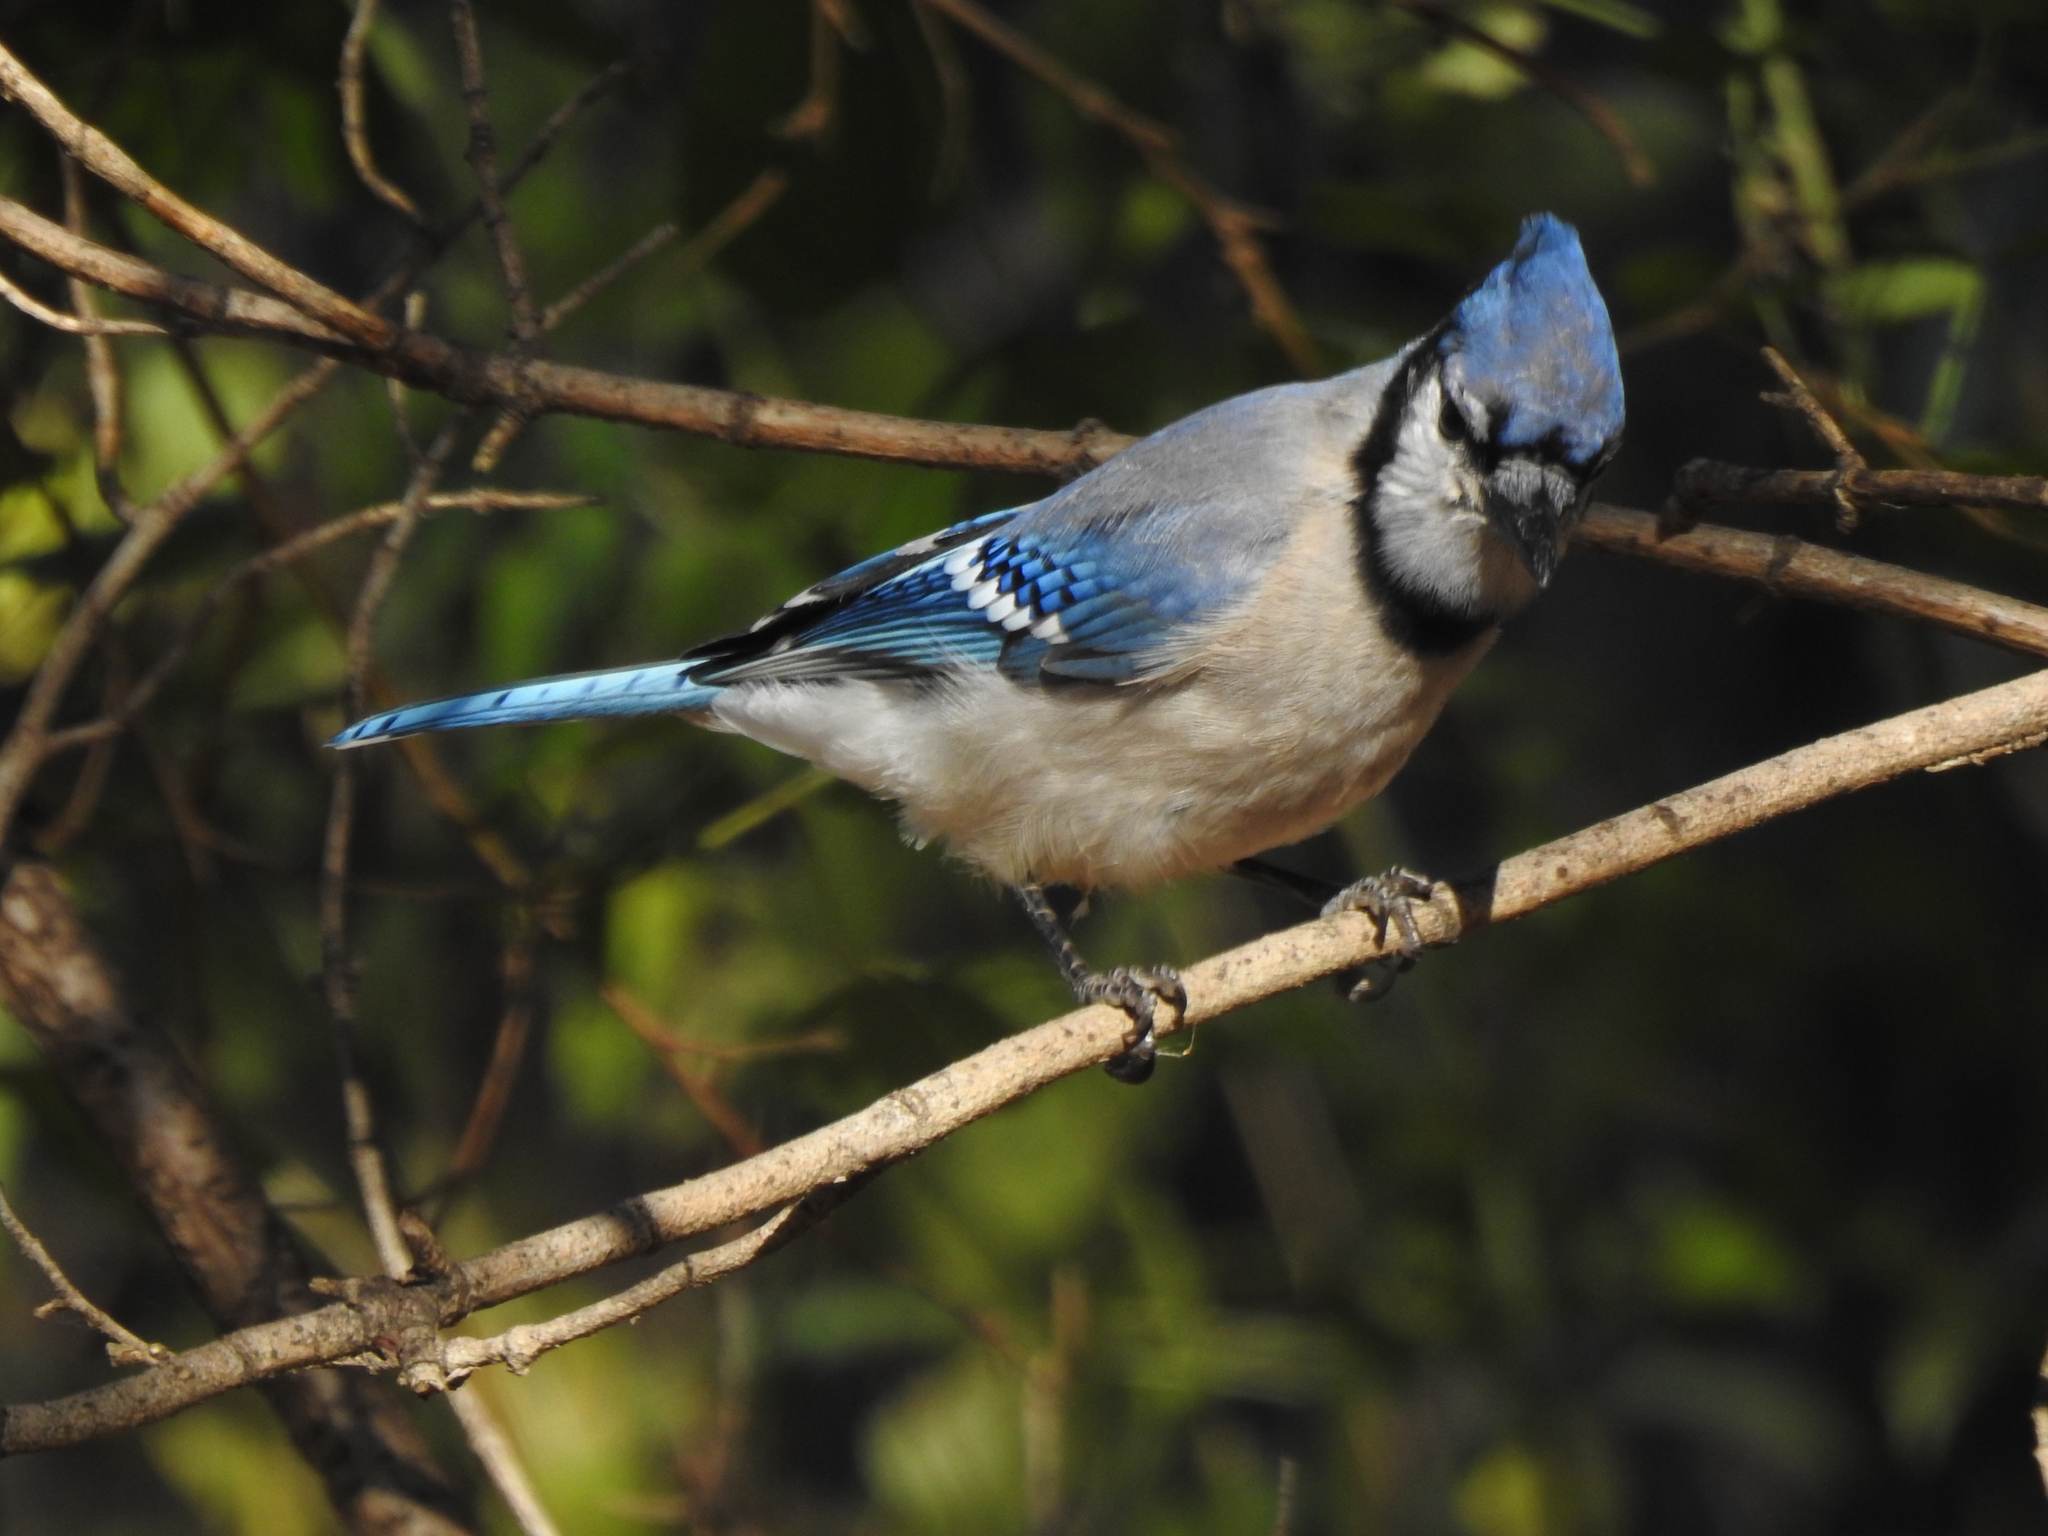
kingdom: Animalia
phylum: Chordata
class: Aves
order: Passeriformes
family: Corvidae
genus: Cyanocitta
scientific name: Cyanocitta cristata
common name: Blue jay
